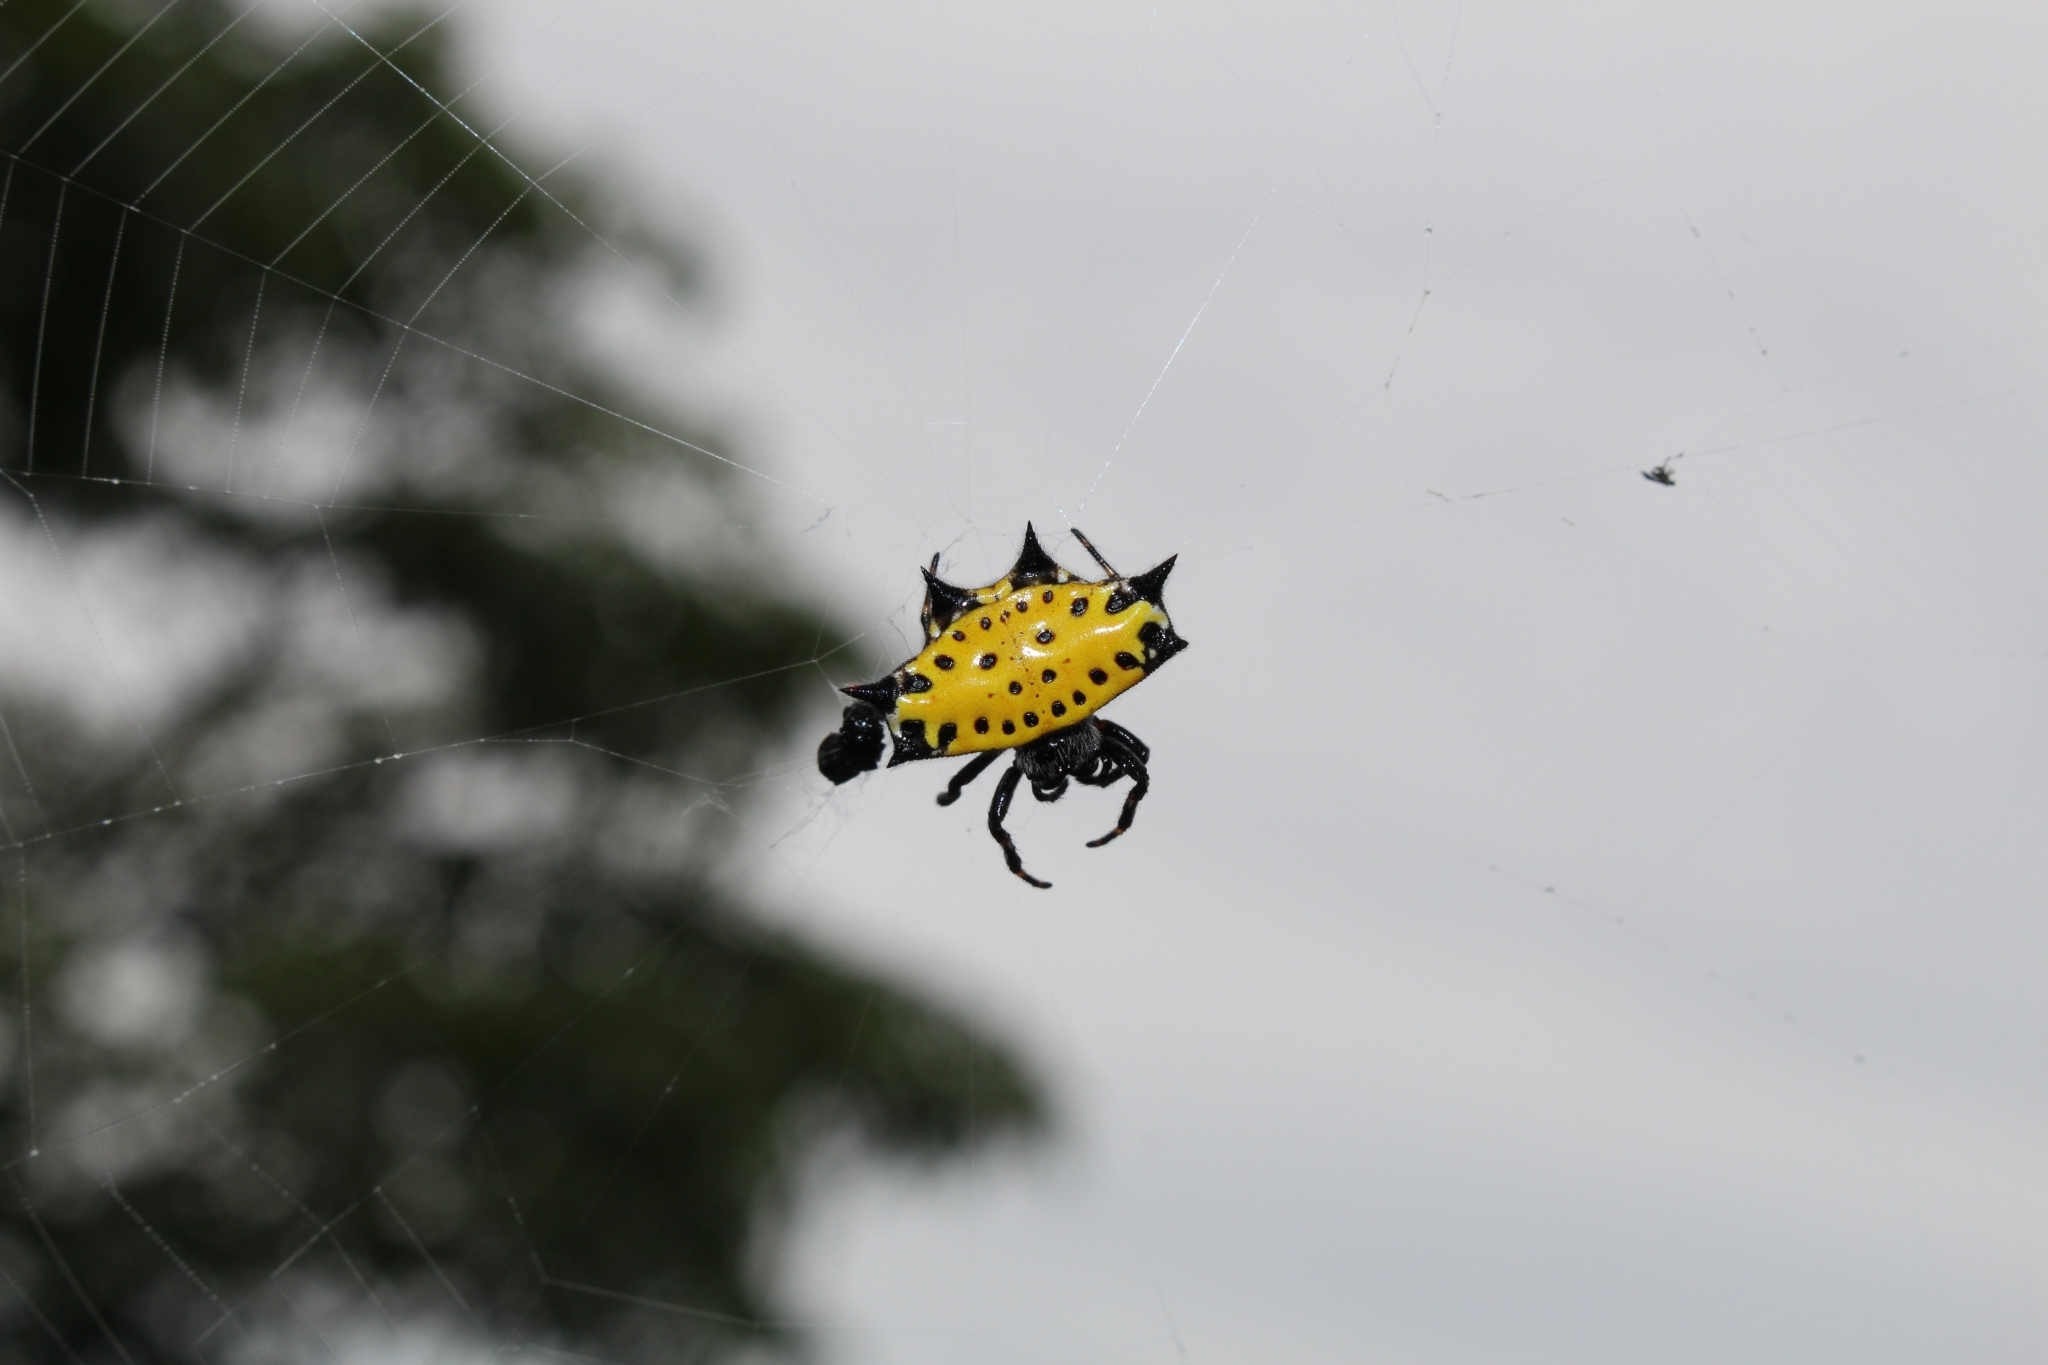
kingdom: Animalia
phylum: Arthropoda
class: Arachnida
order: Araneae
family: Araneidae
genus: Gasteracantha
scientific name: Gasteracantha cancriformis
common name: Orb weavers
